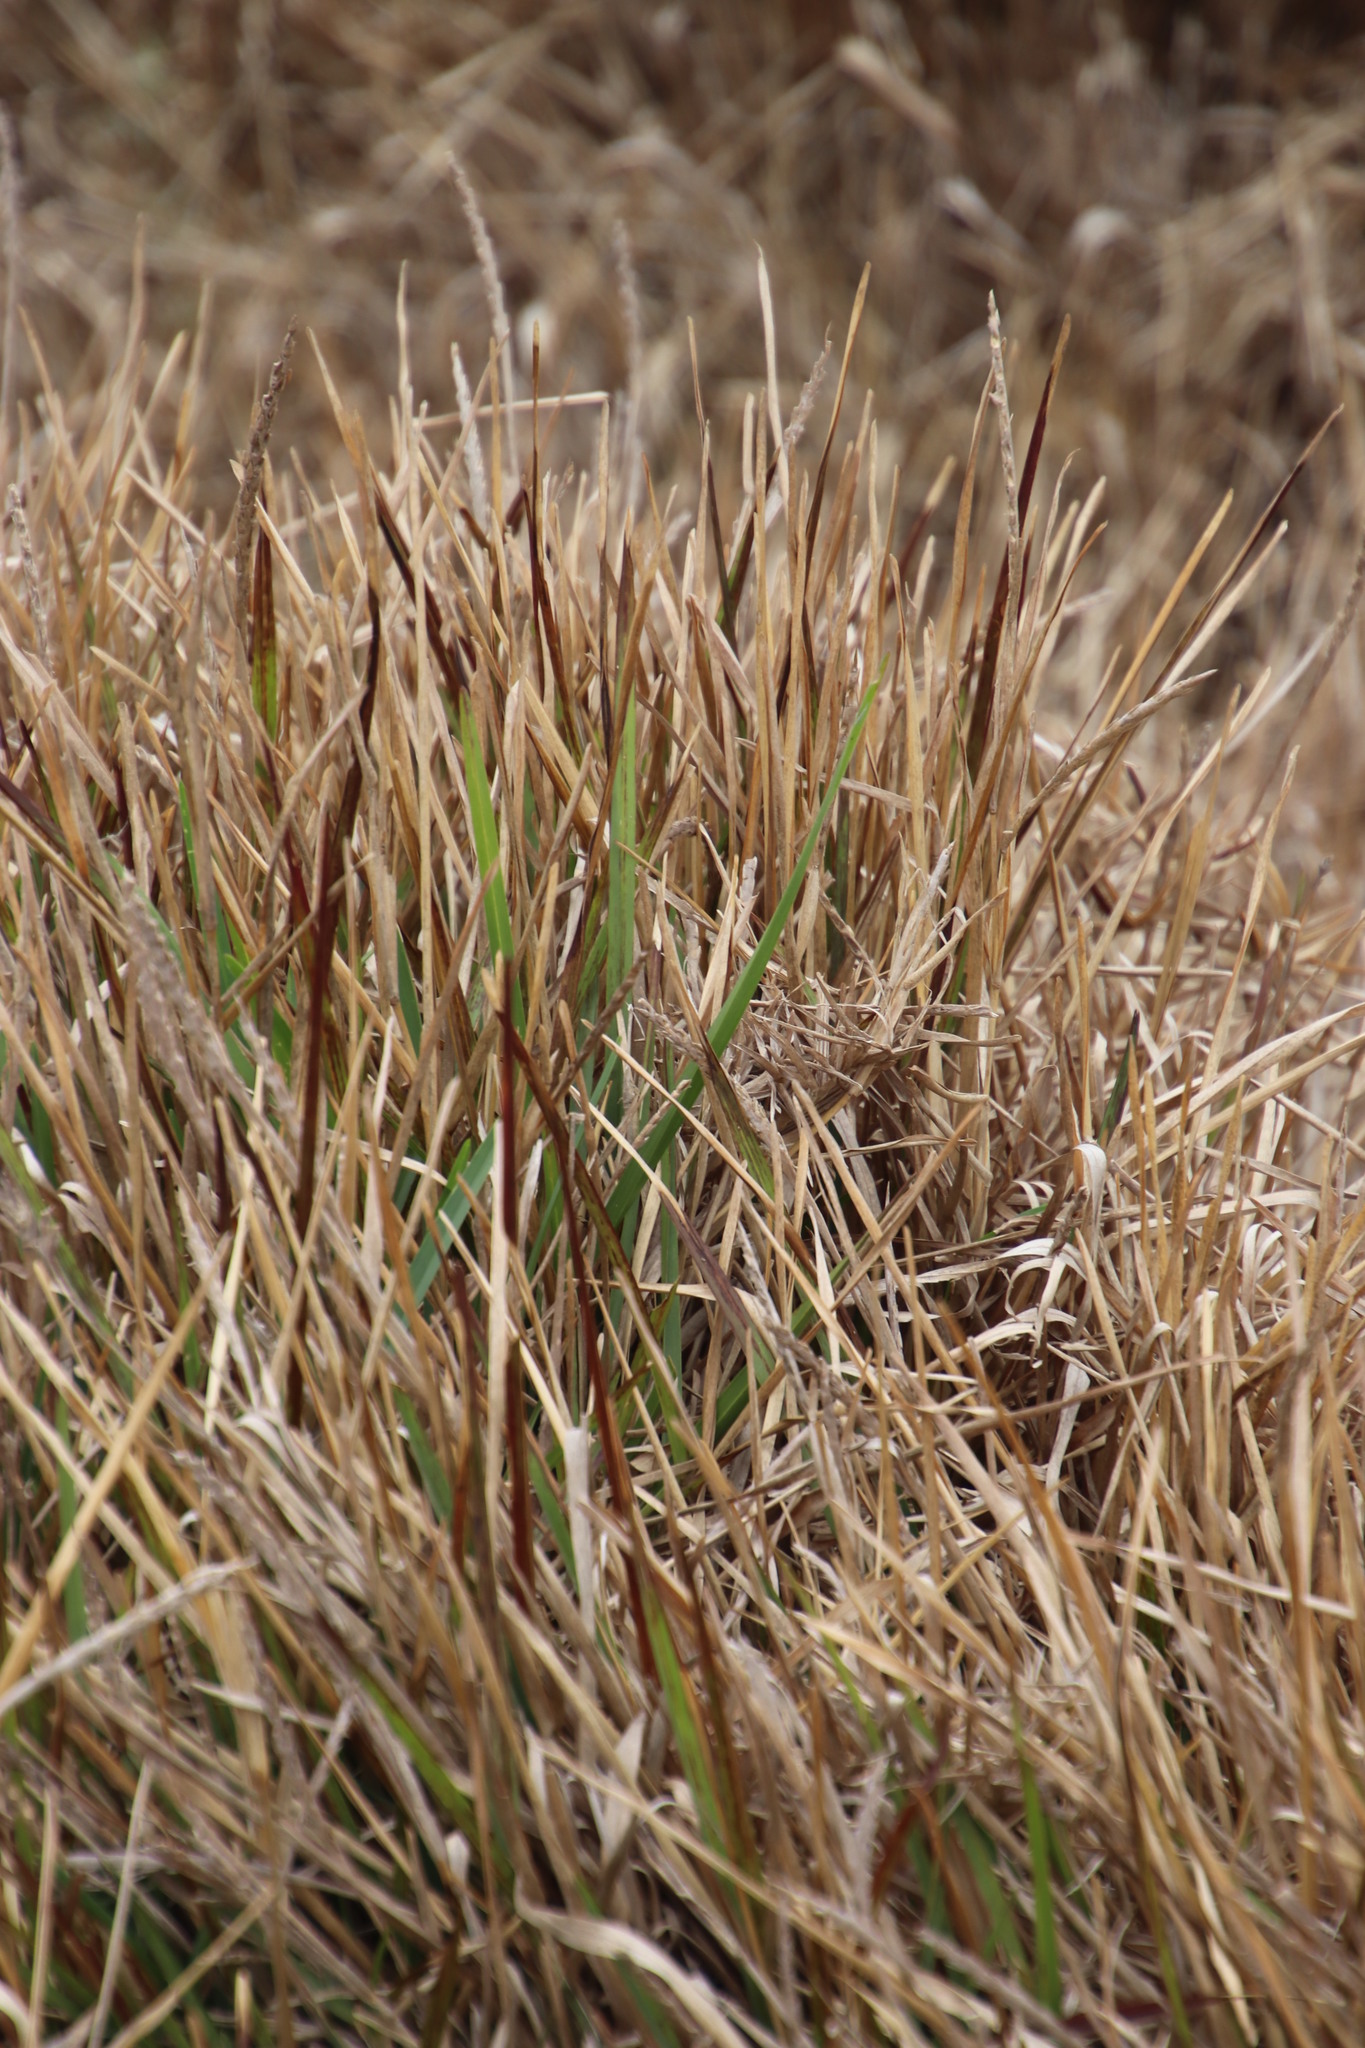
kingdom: Plantae
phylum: Tracheophyta
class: Liliopsida
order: Poales
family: Poaceae
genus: Stenotaphrum
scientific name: Stenotaphrum secundatum
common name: St. augustine grass
